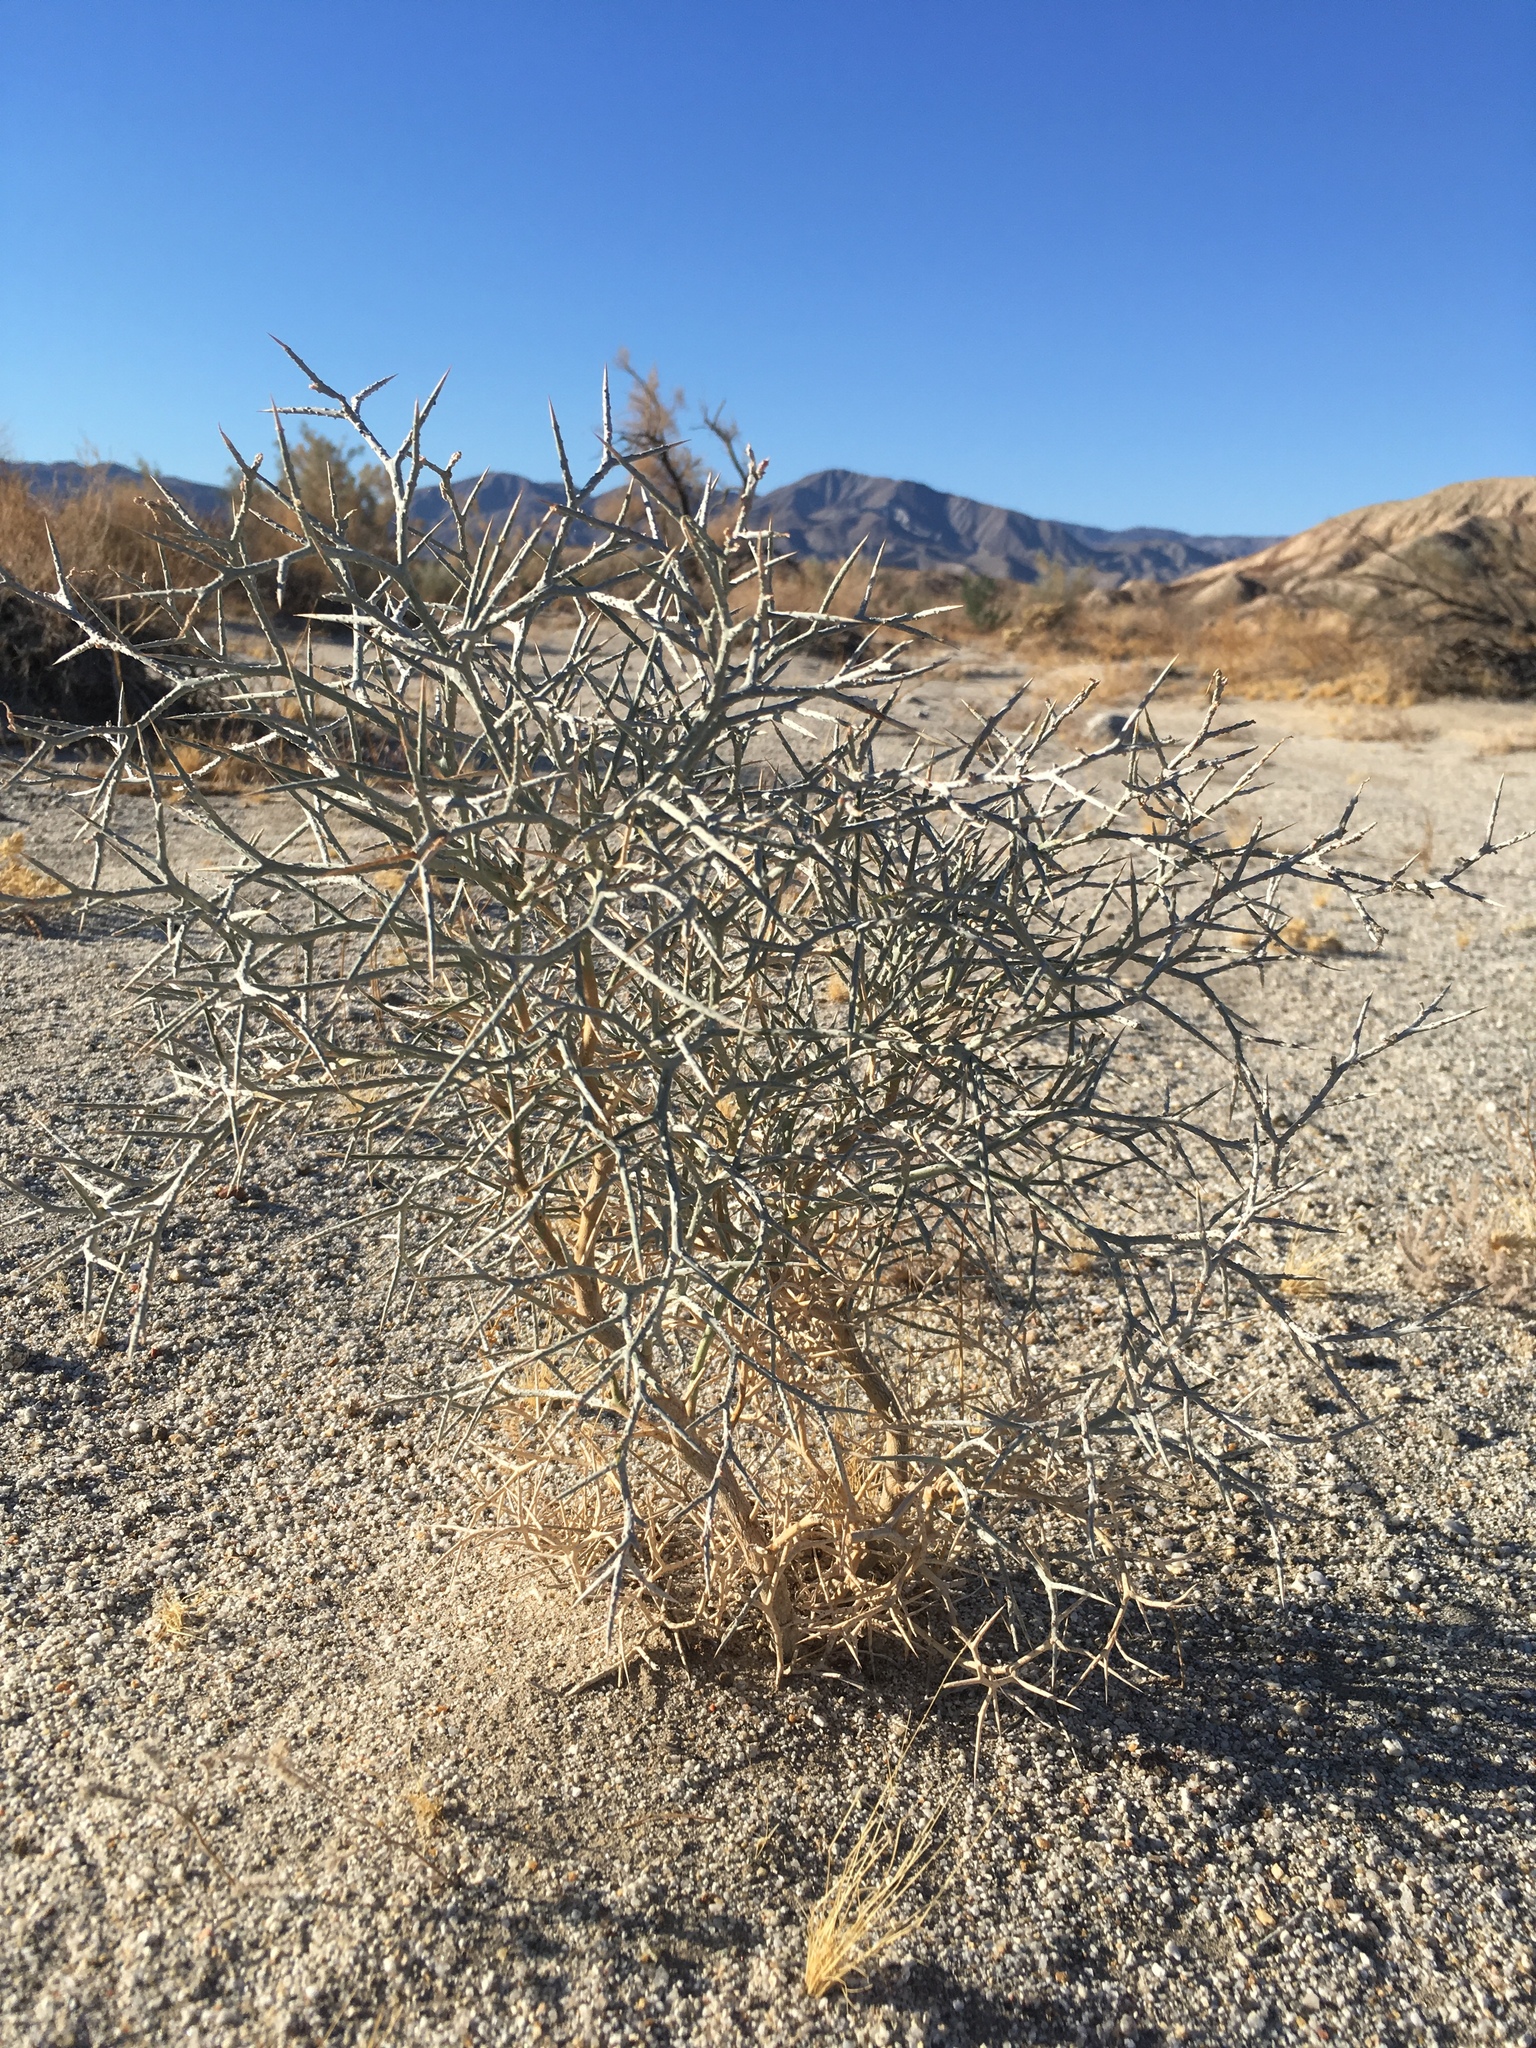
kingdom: Plantae
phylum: Tracheophyta
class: Magnoliopsida
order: Fabales
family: Fabaceae
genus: Psorothamnus
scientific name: Psorothamnus spinosus
